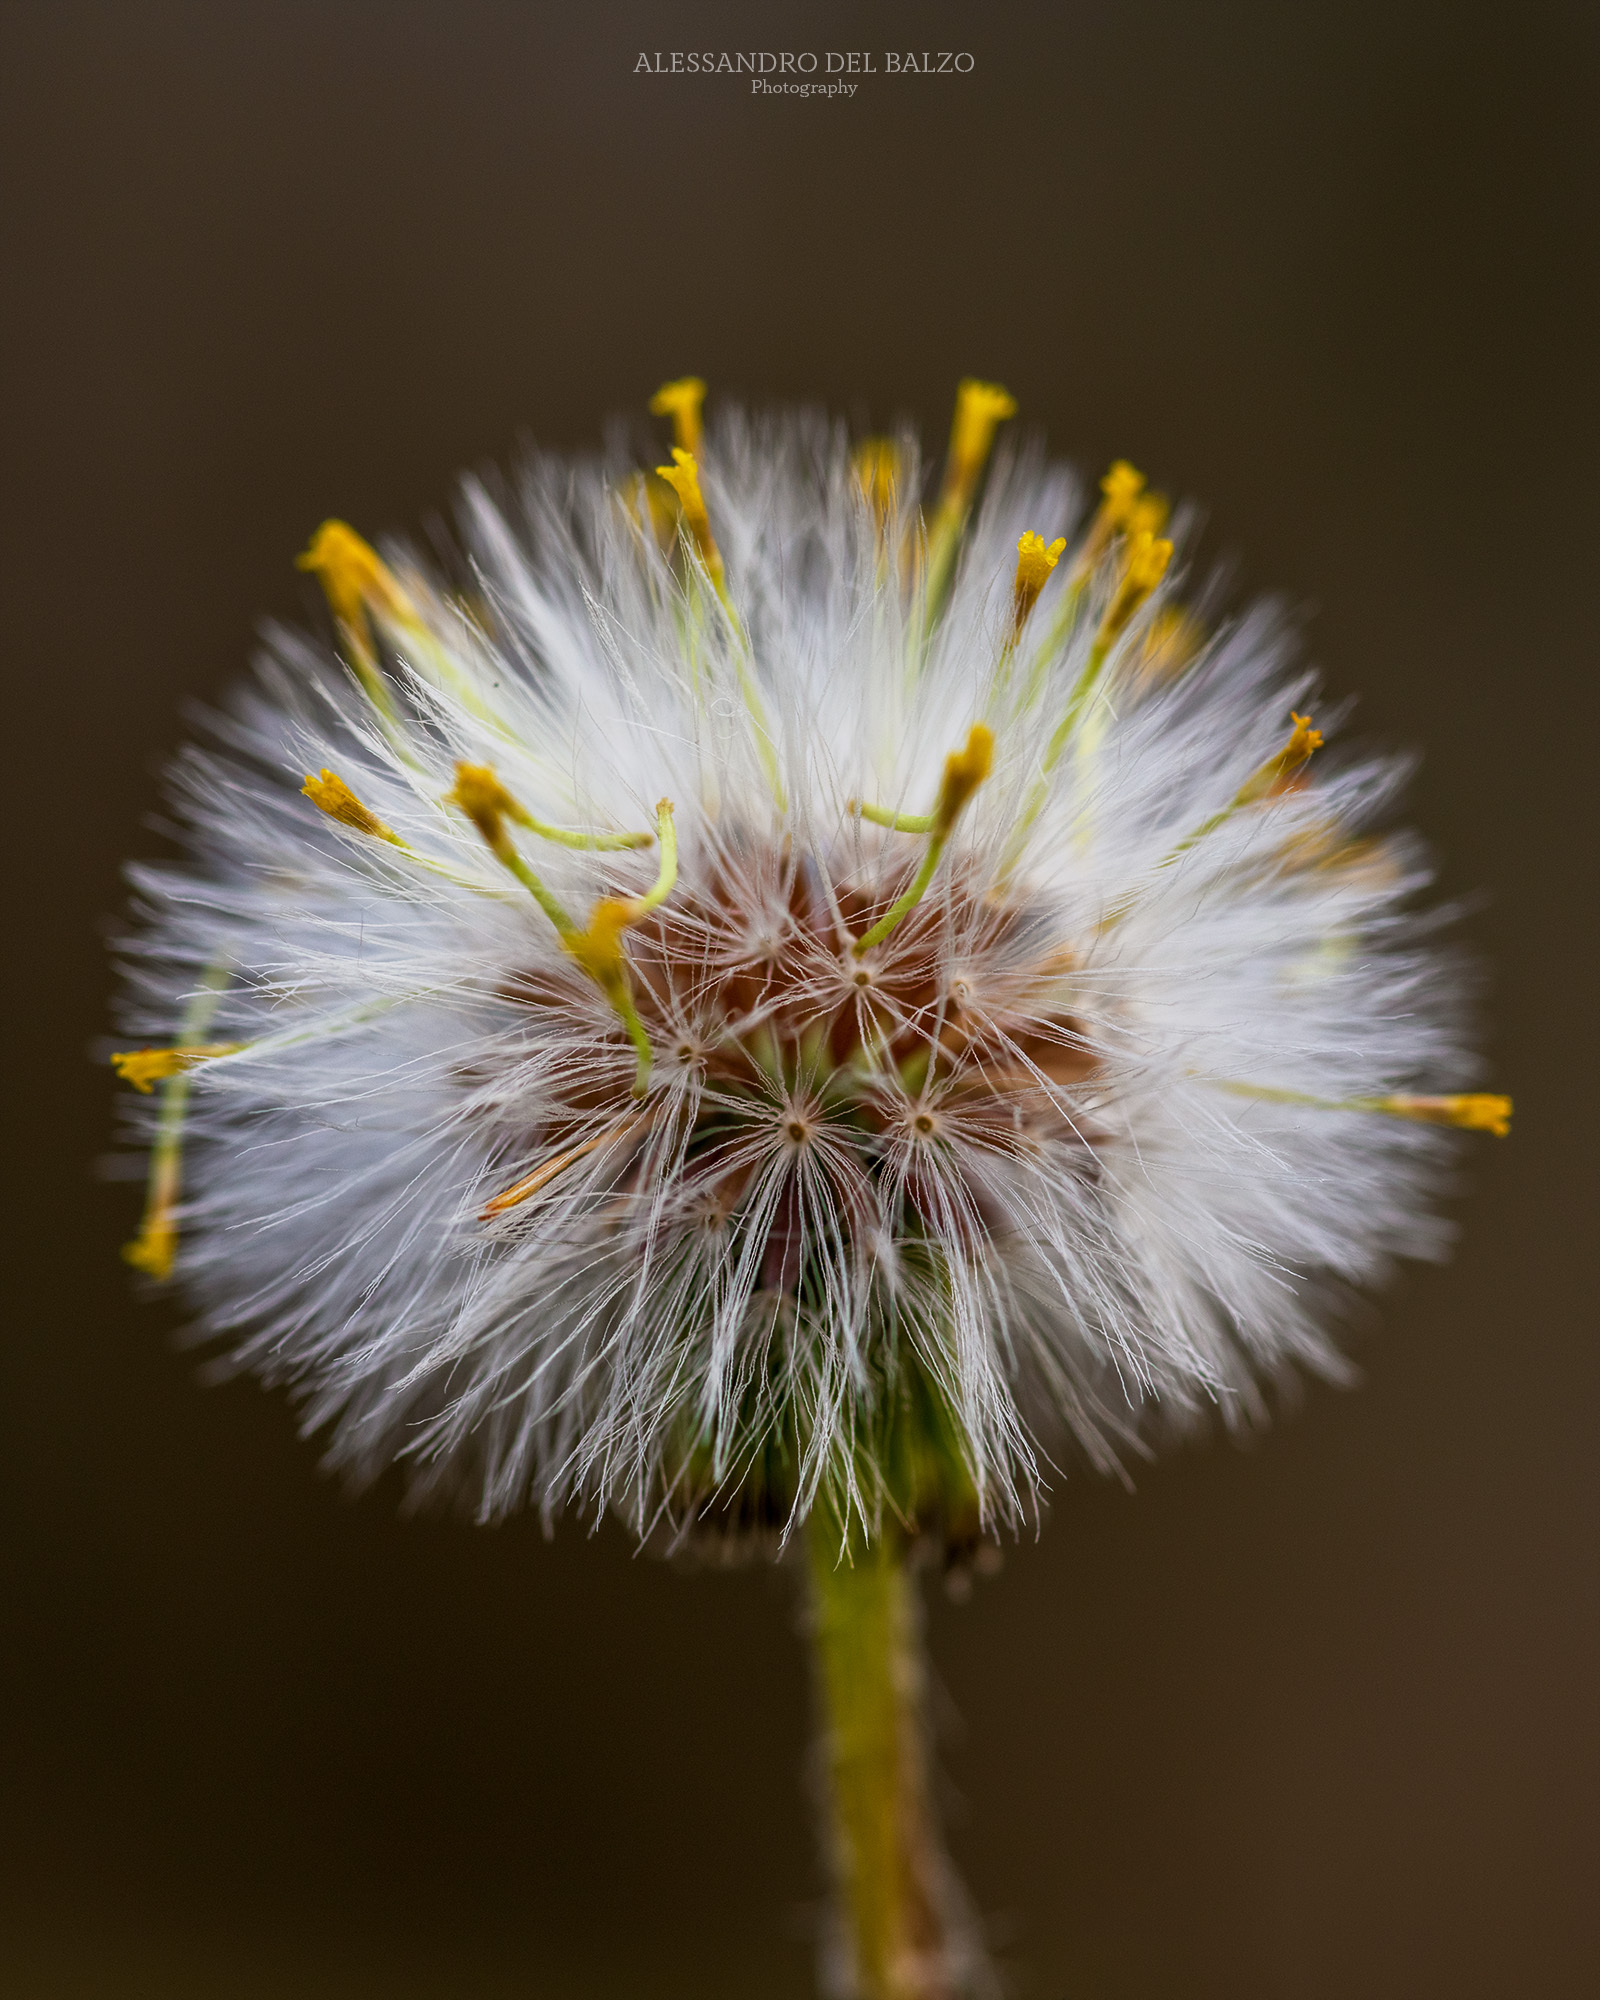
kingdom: Plantae
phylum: Tracheophyta
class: Magnoliopsida
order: Asterales
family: Asteraceae
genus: Senecio
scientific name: Senecio vulgaris
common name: Old-man-in-the-spring
